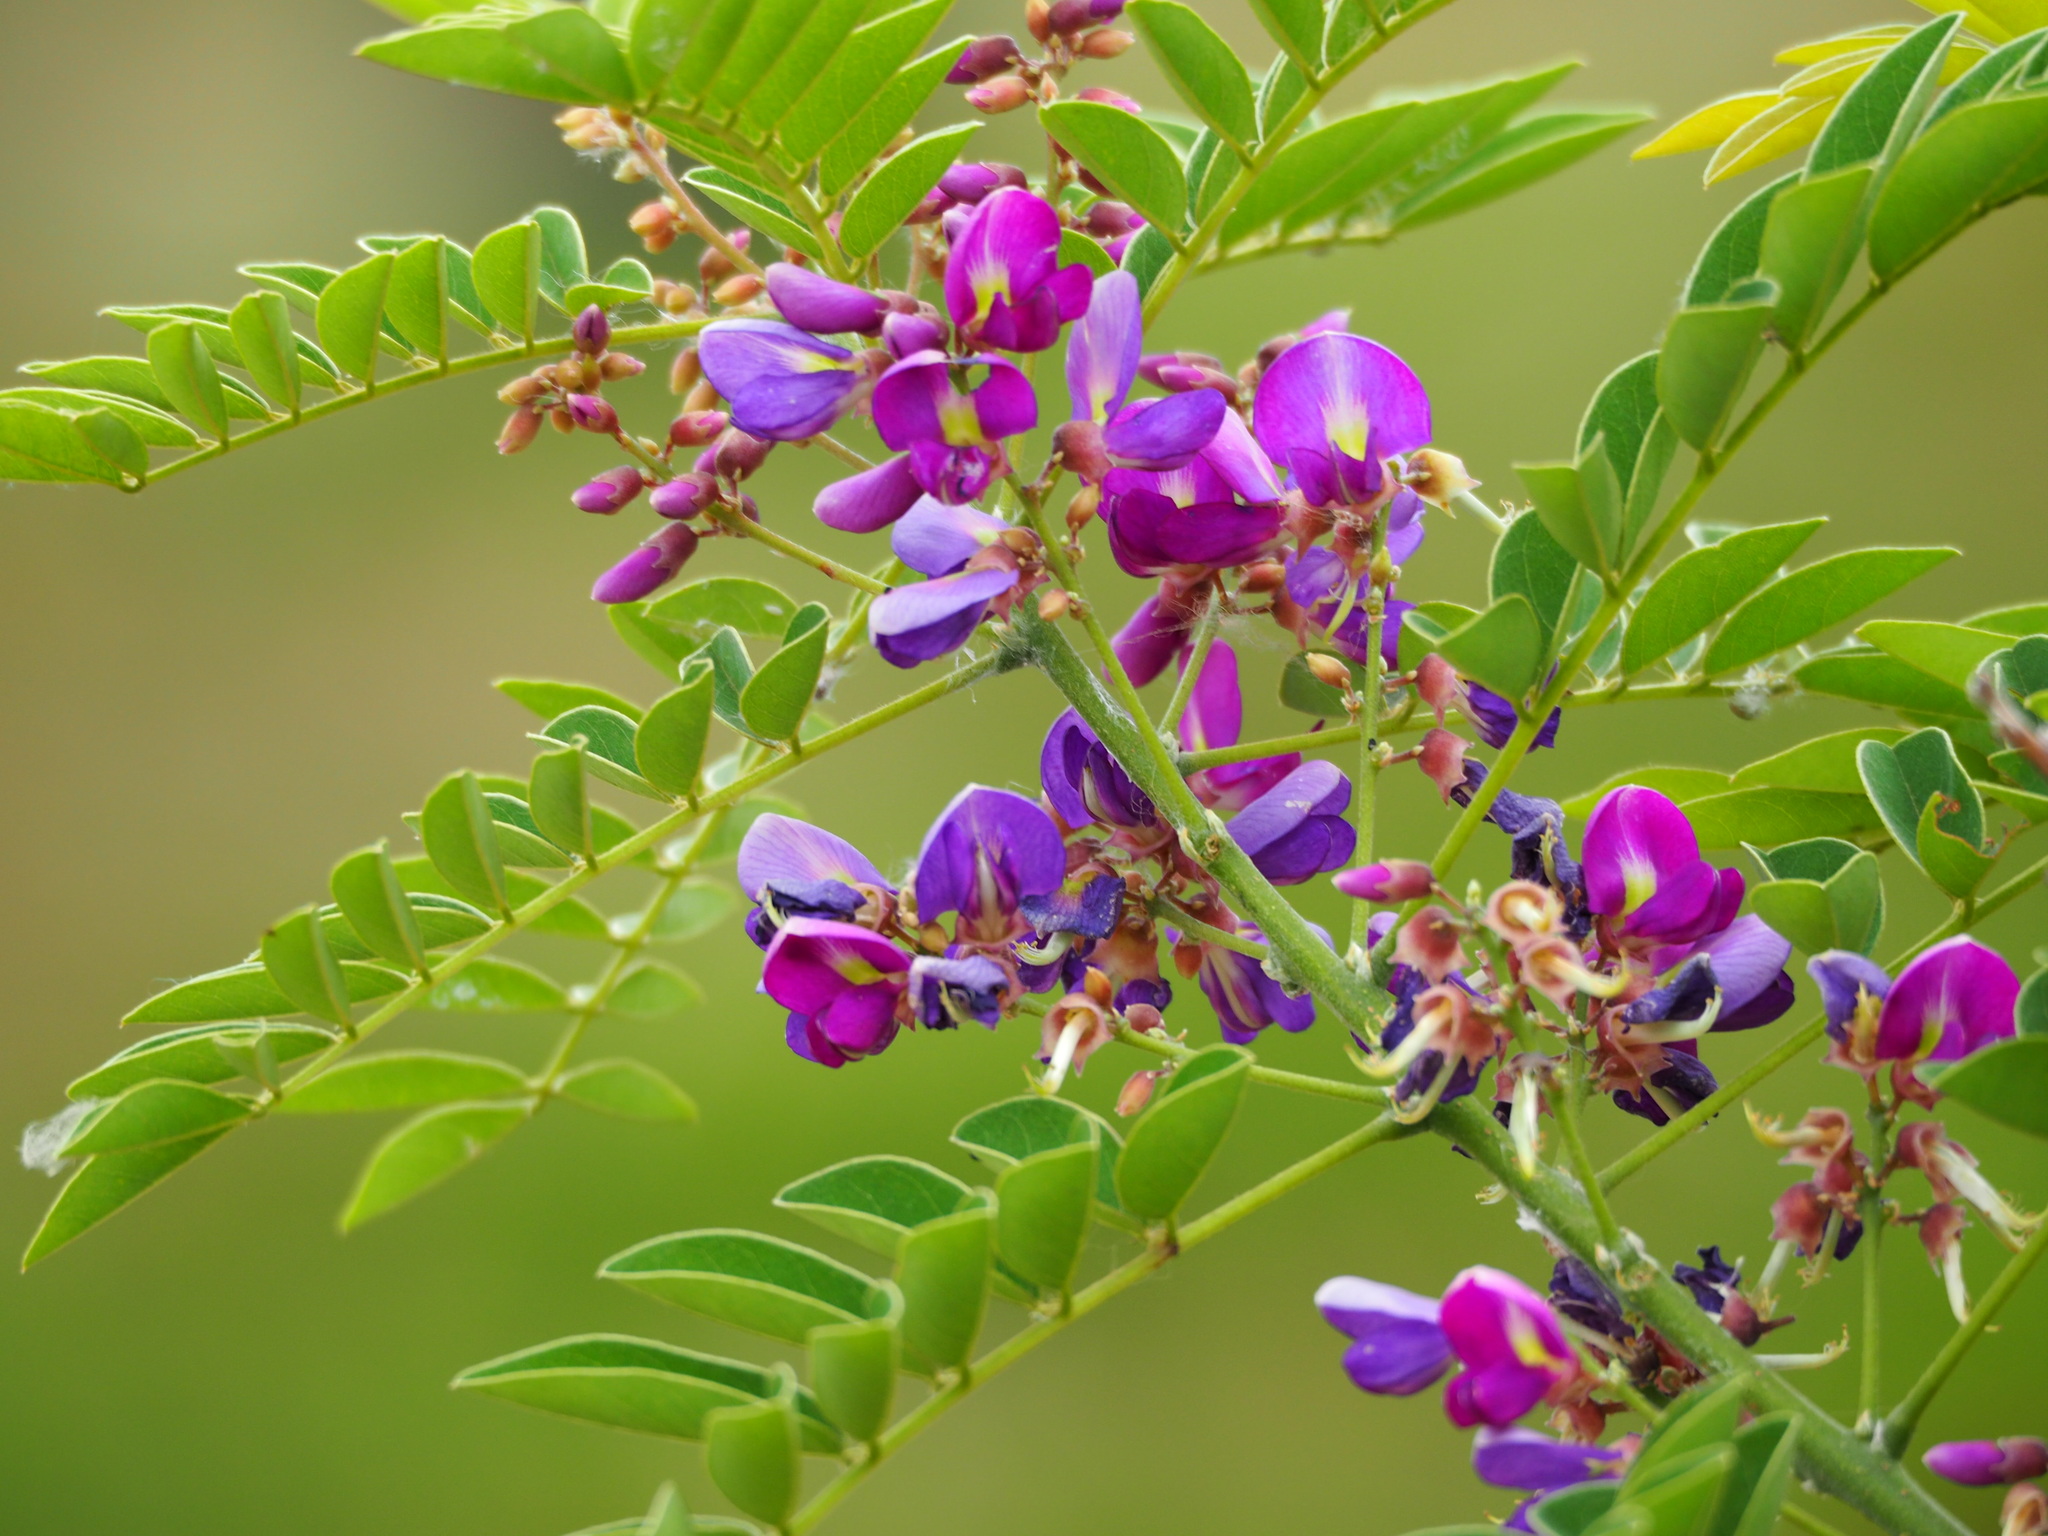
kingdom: Plantae
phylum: Tracheophyta
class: Magnoliopsida
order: Fabales
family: Fabaceae
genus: Millettia
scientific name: Millettia pulchra
